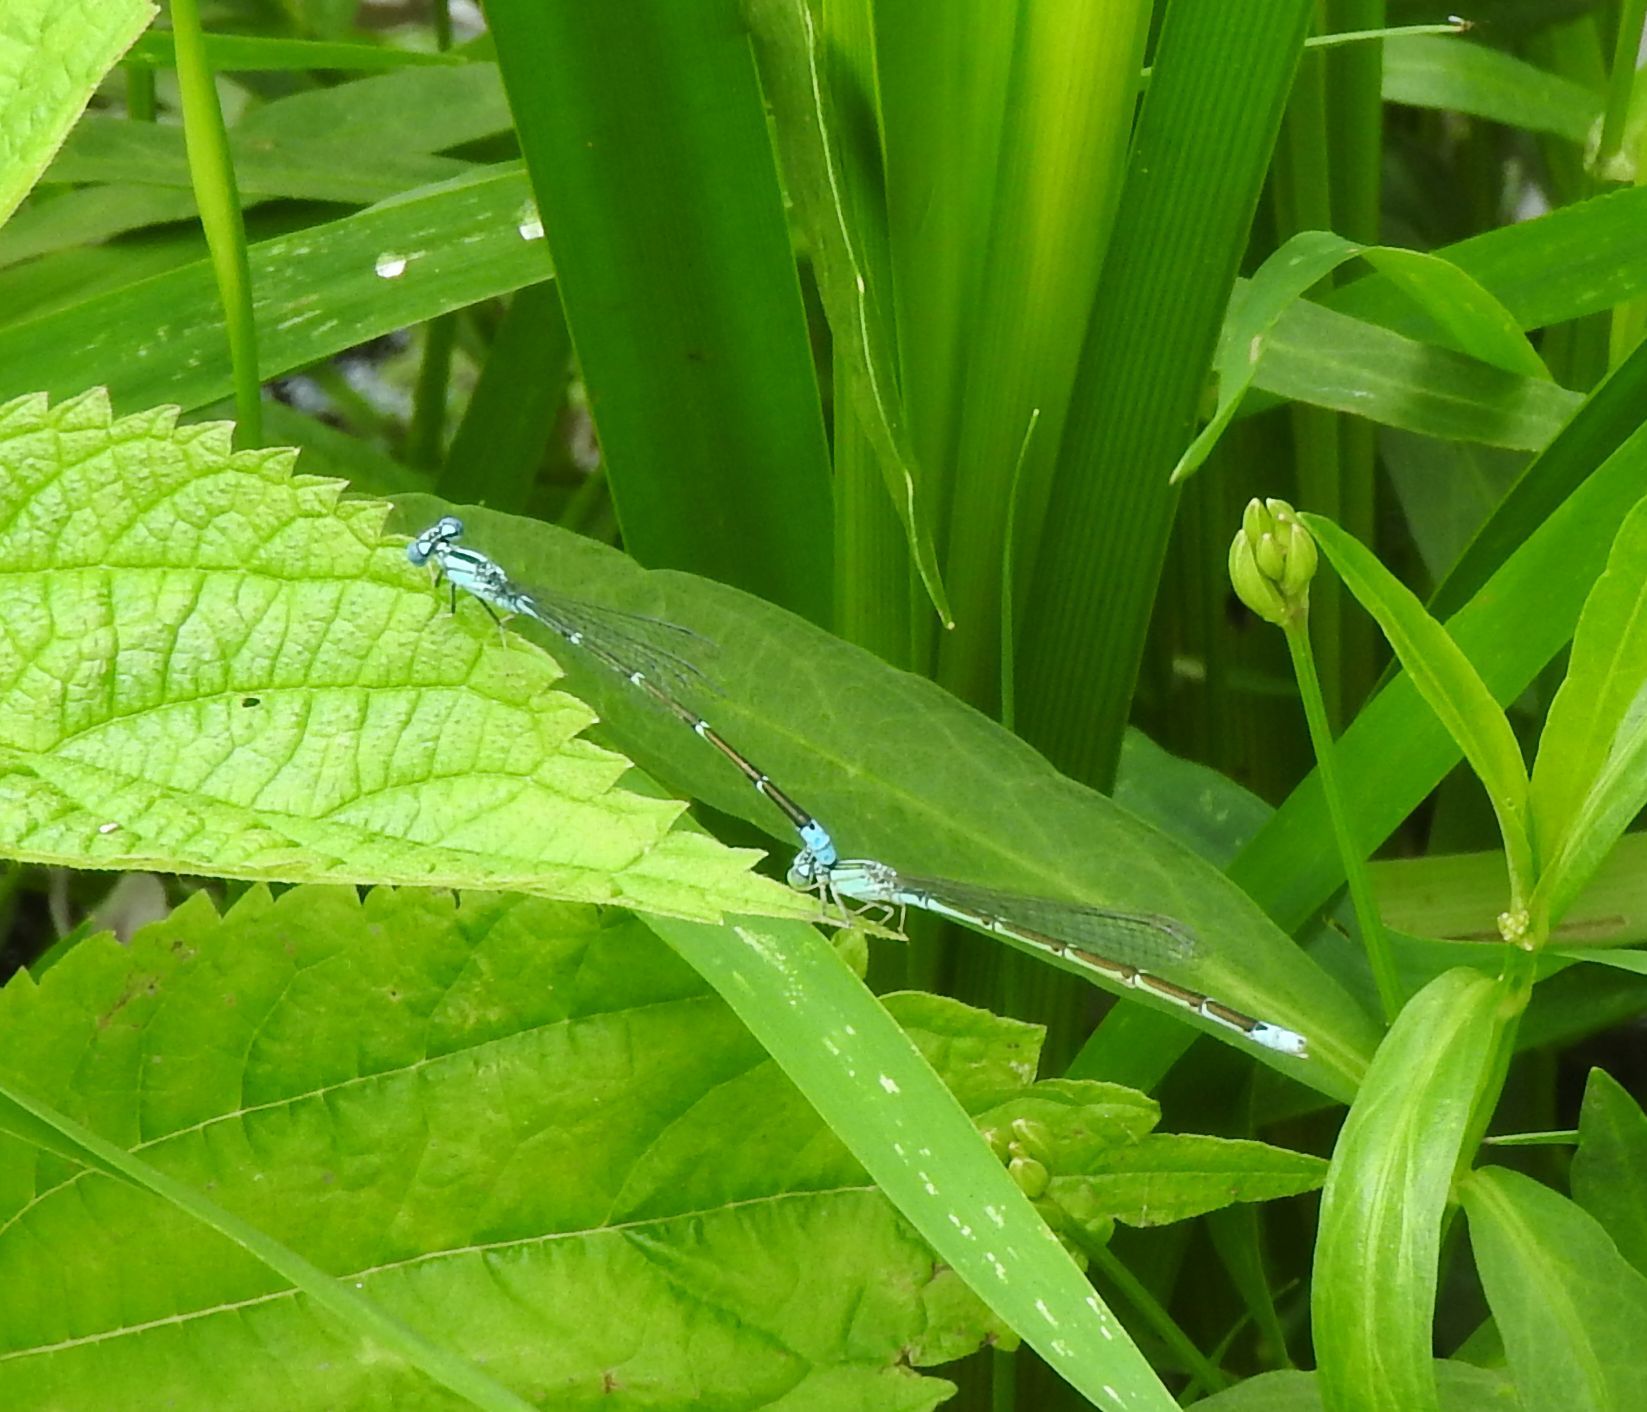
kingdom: Animalia
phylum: Arthropoda
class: Insecta
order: Odonata
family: Coenagrionidae
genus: Enallagma
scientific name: Enallagma traviatum
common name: Slender bluet
